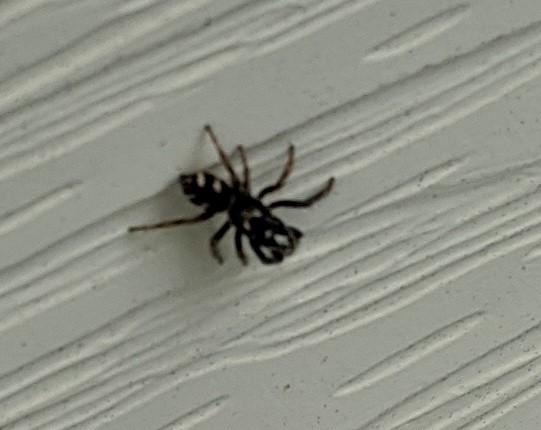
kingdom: Animalia
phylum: Arthropoda
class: Arachnida
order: Araneae
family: Salticidae
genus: Salticus
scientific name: Salticus scenicus
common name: Zebra jumper
